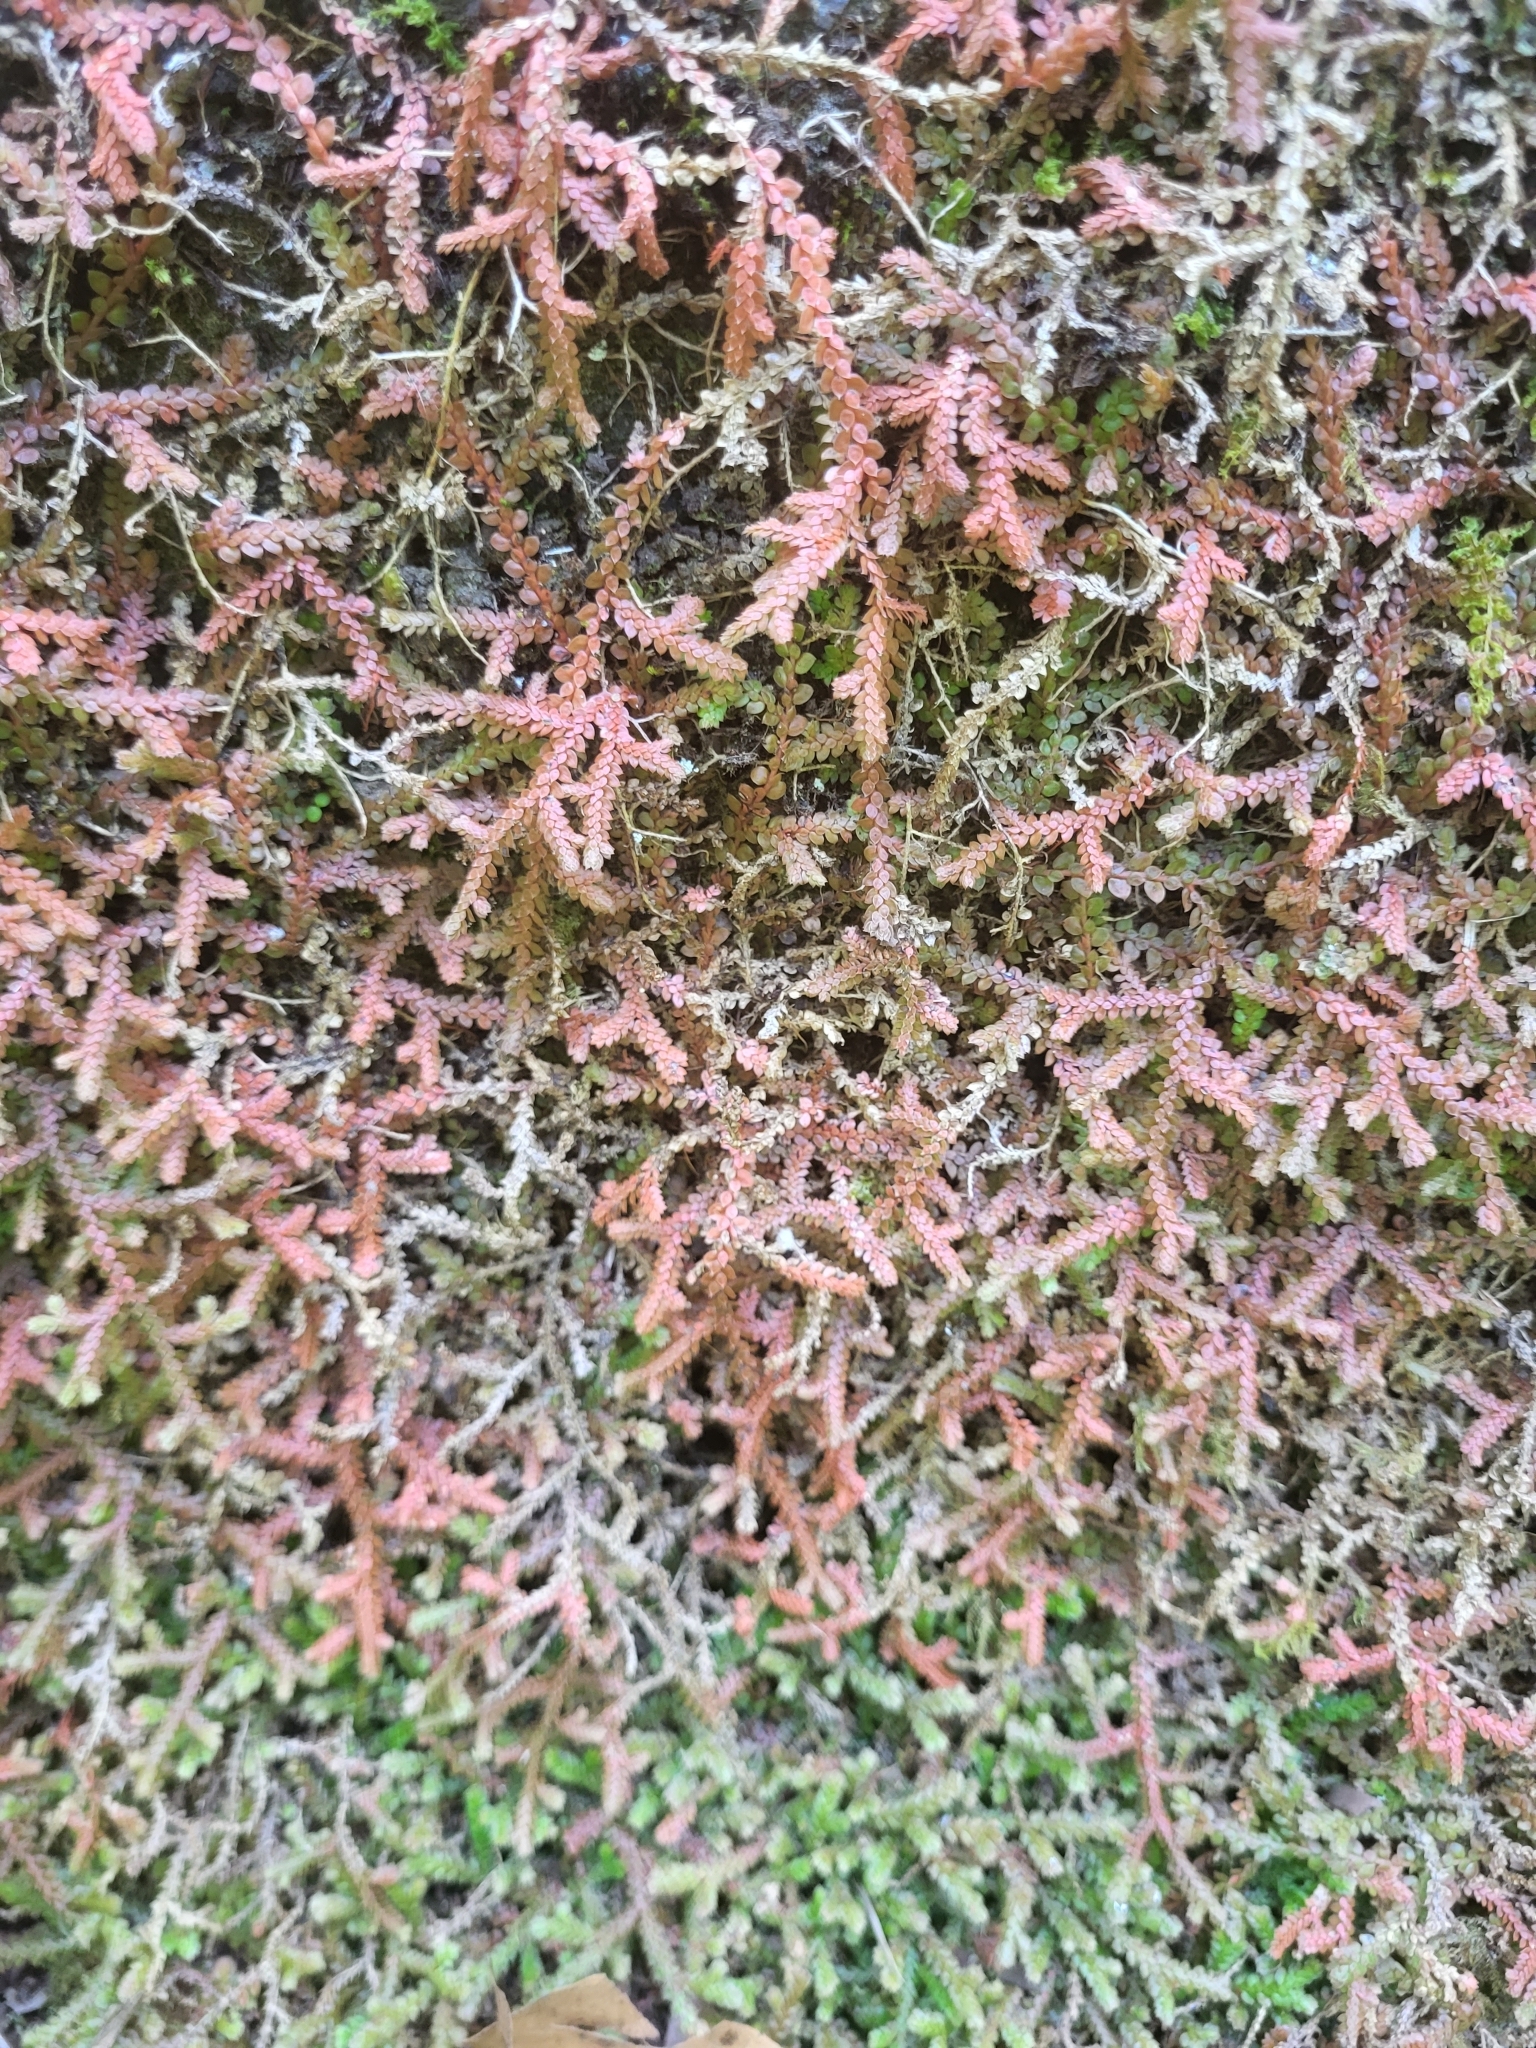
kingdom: Plantae
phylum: Tracheophyta
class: Lycopodiopsida
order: Selaginellales
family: Selaginellaceae
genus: Selaginella
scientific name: Selaginella denticulata
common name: Toothed-leaved clubmoss
